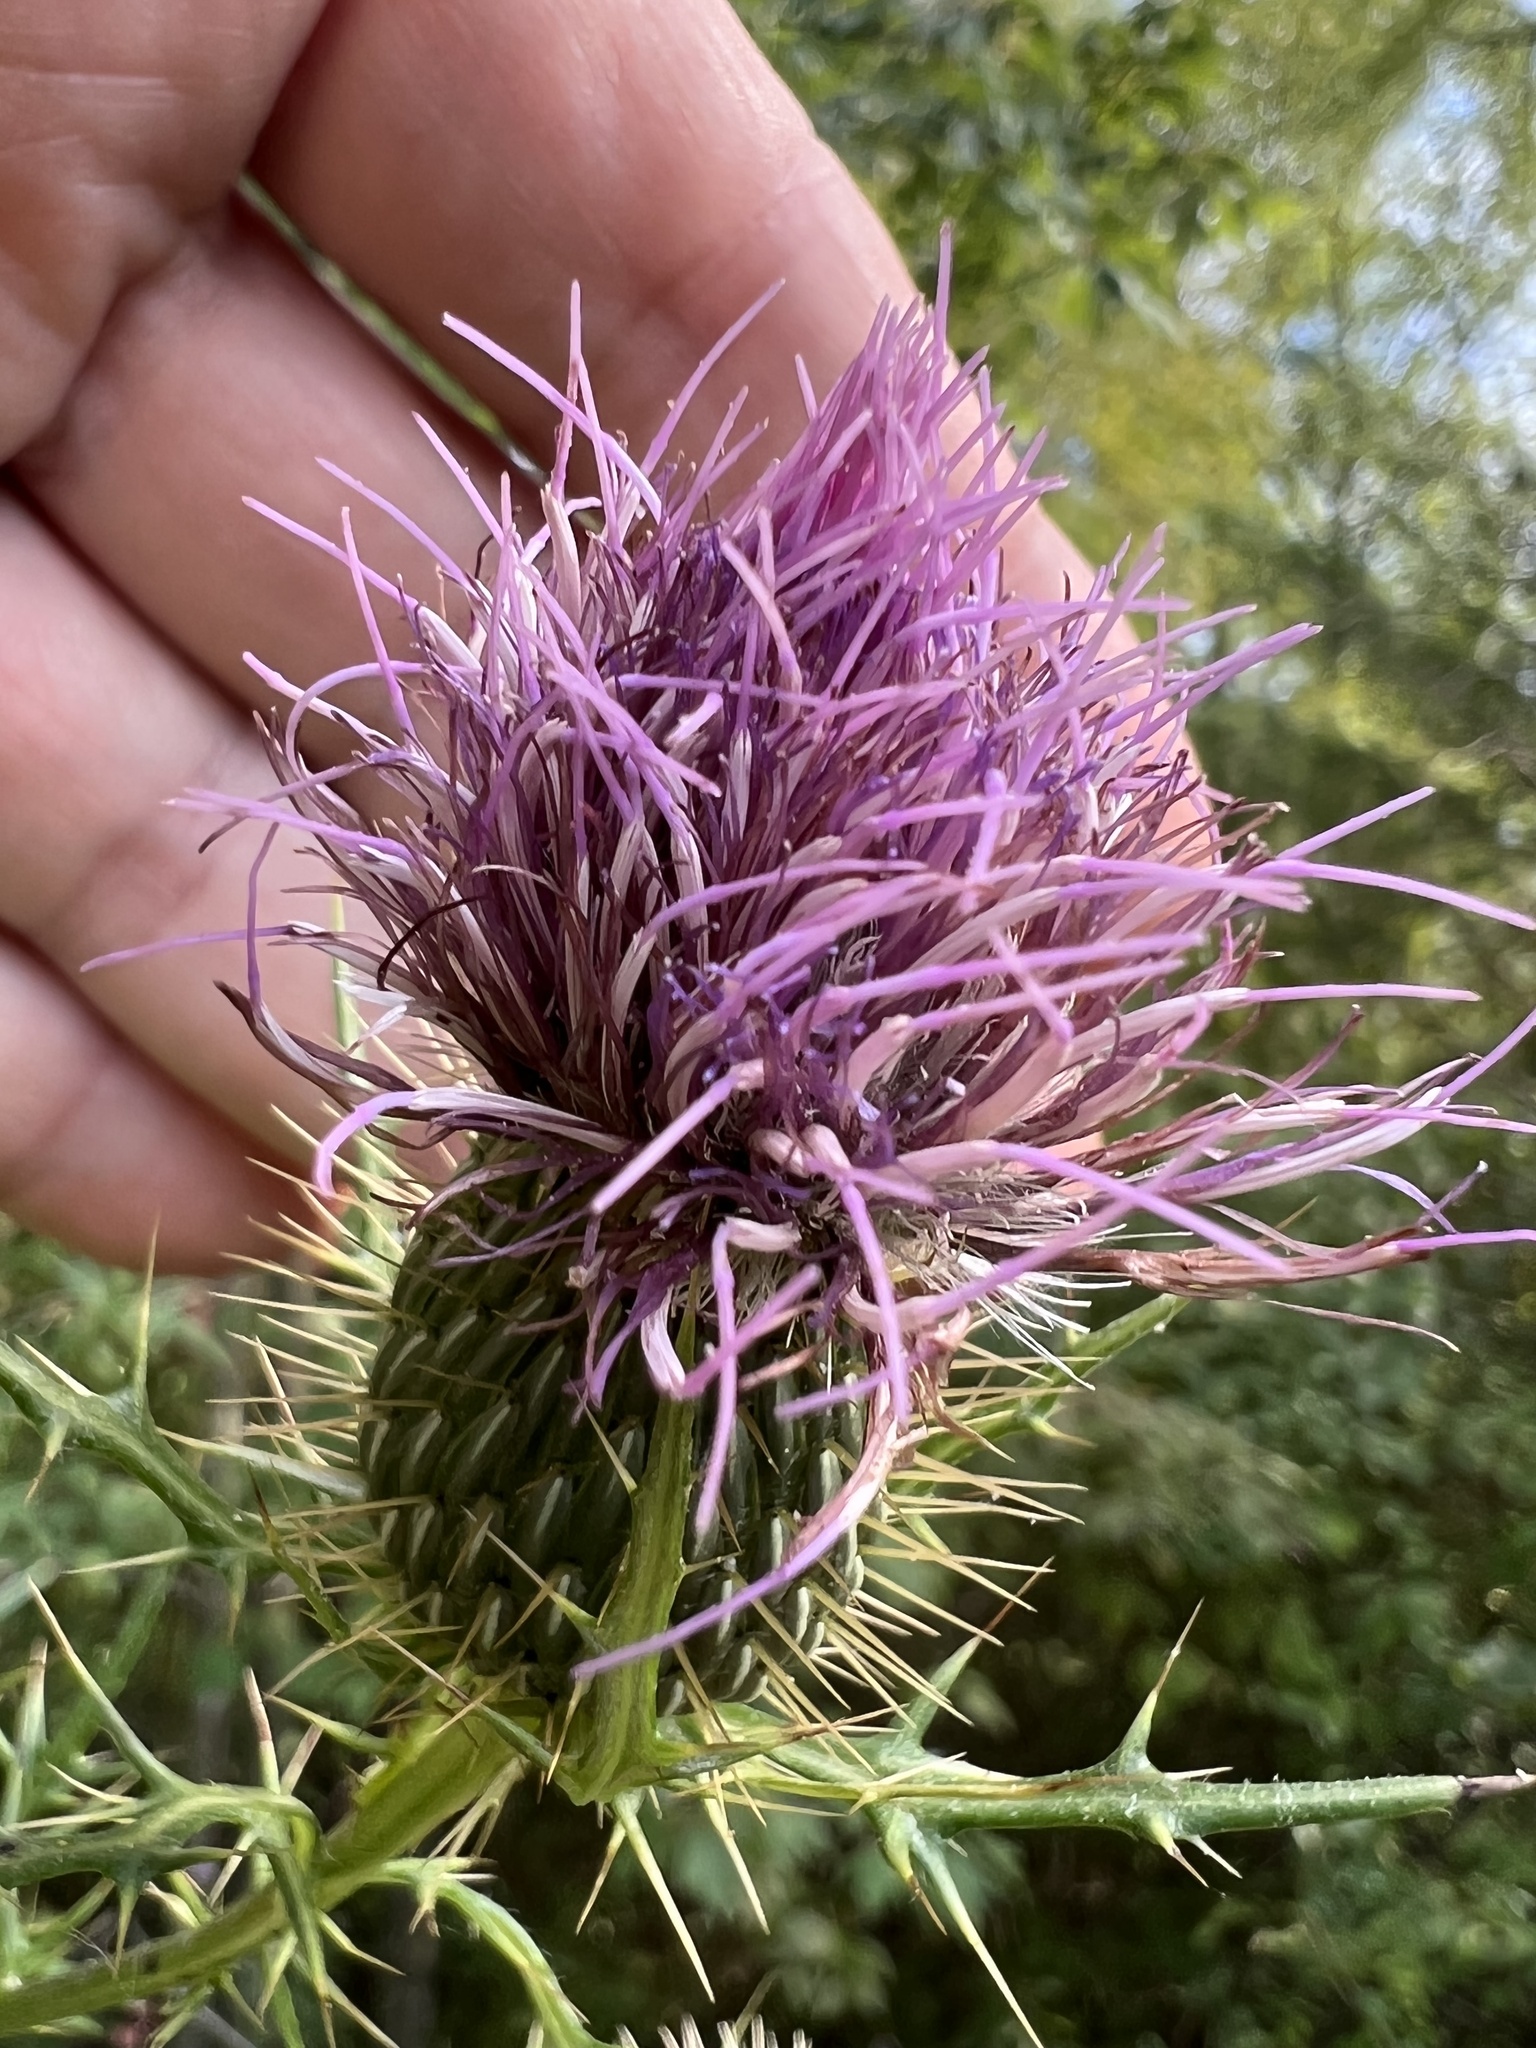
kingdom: Plantae
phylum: Tracheophyta
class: Magnoliopsida
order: Asterales
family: Asteraceae
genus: Cirsium
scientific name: Cirsium discolor
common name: Field thistle
